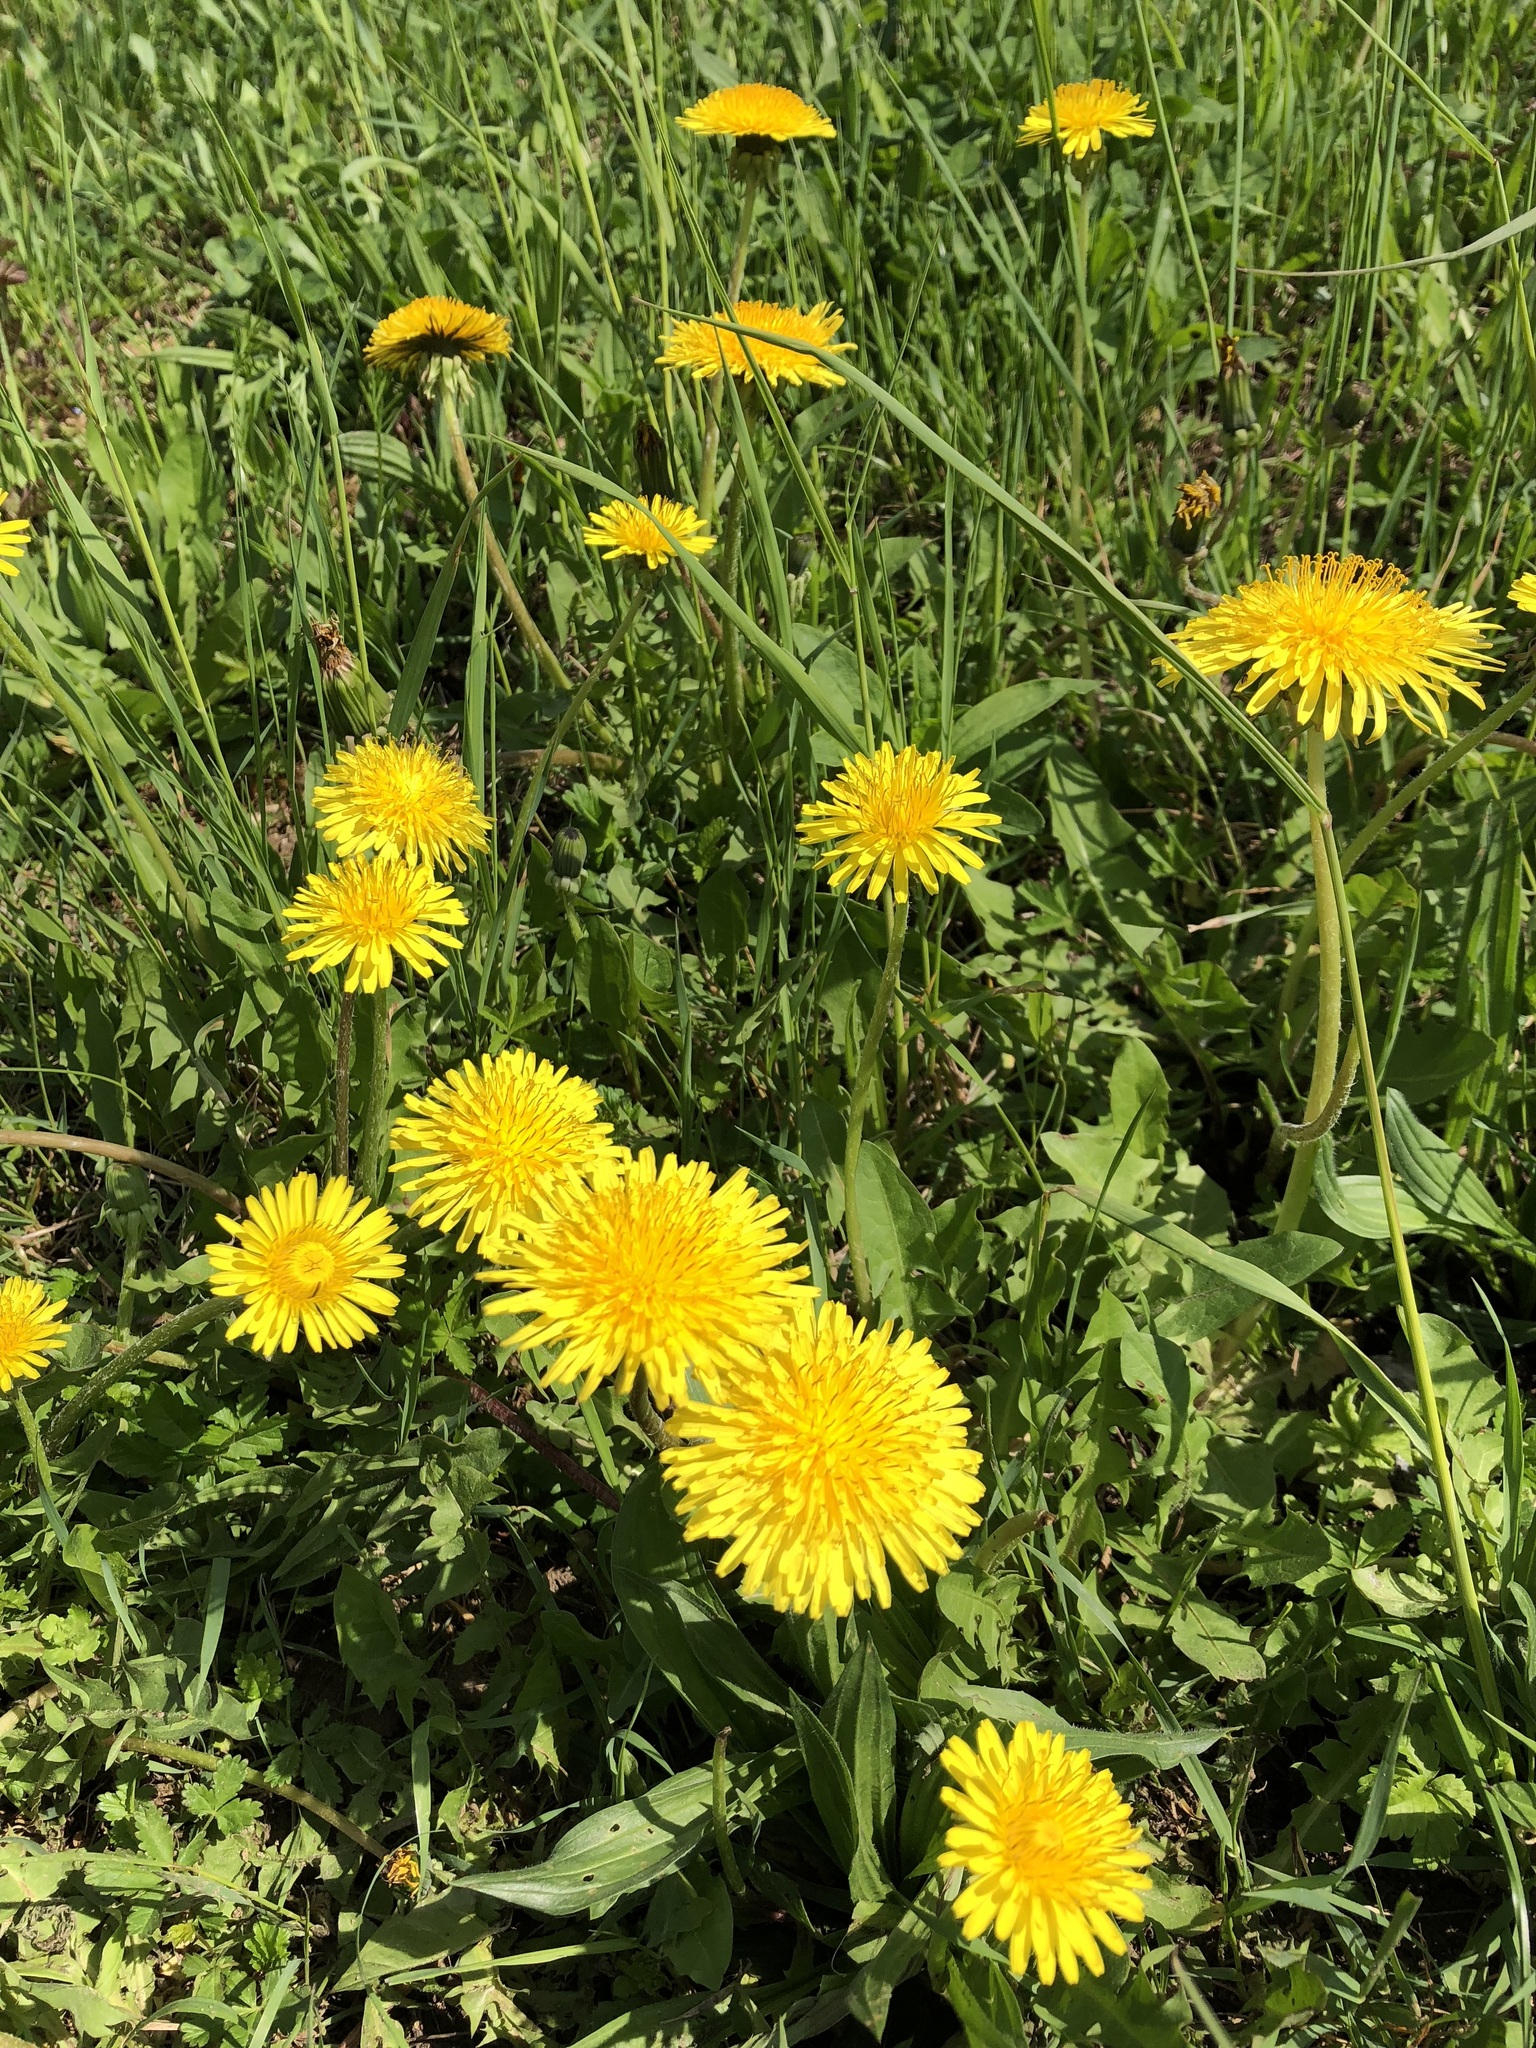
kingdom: Plantae
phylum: Tracheophyta
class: Magnoliopsida
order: Asterales
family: Asteraceae
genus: Taraxacum
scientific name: Taraxacum officinale
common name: Common dandelion
